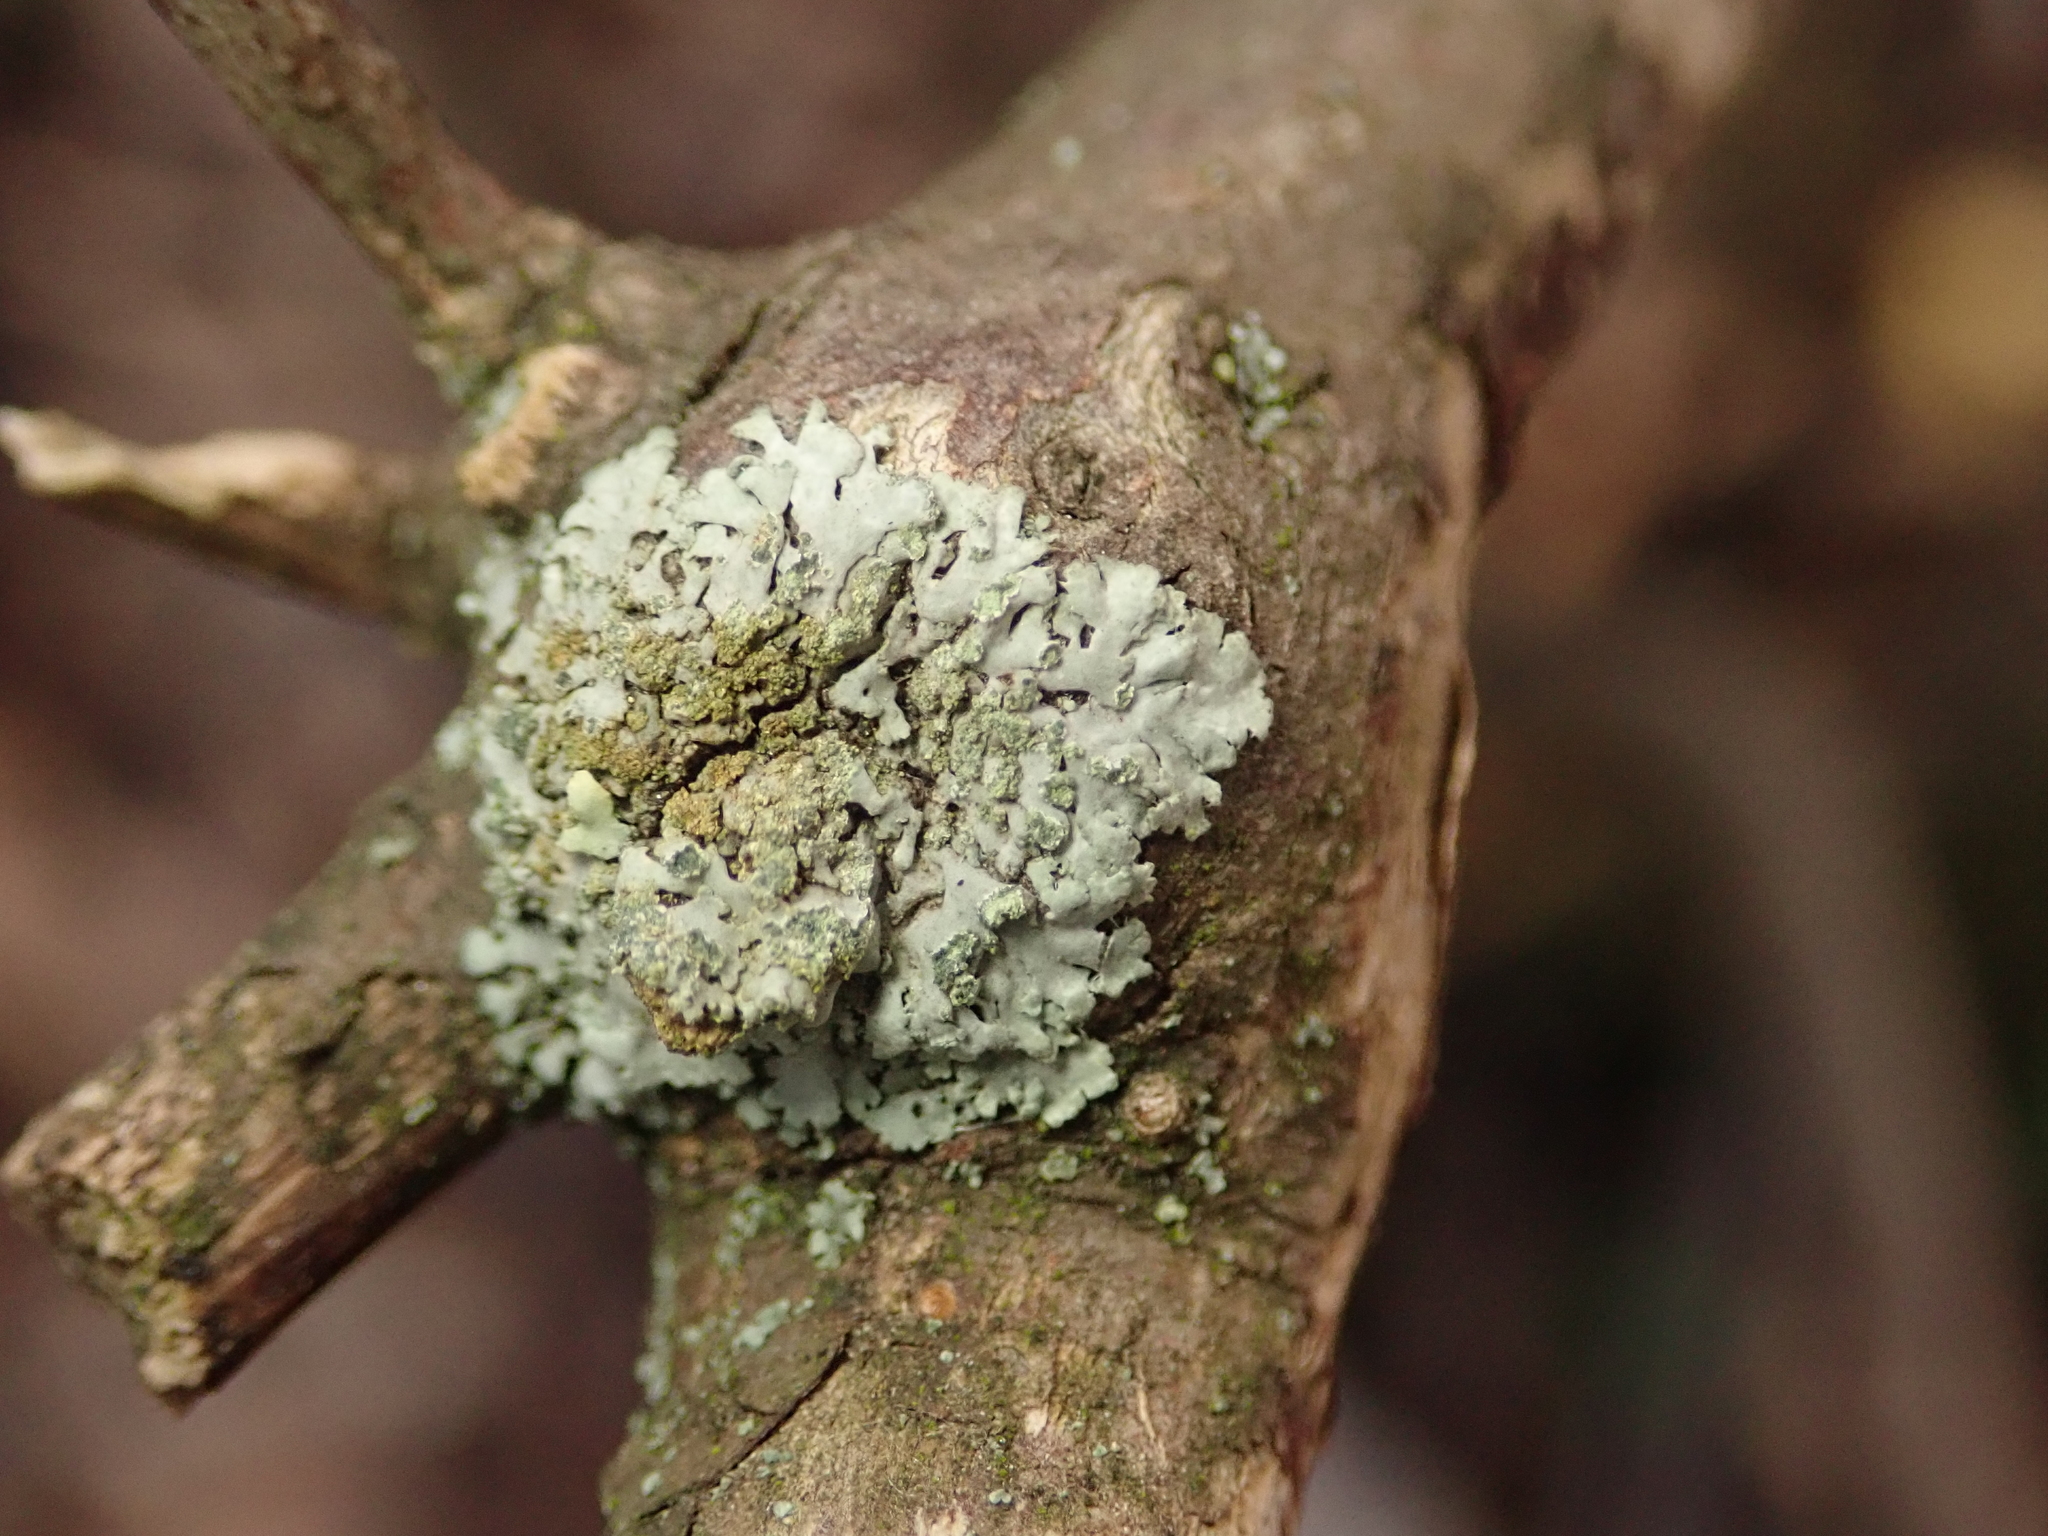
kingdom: Fungi
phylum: Ascomycota
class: Lecanoromycetes
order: Caliciales
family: Physciaceae
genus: Phaeophyscia
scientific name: Phaeophyscia orbicularis
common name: Mealy shadow lichen
